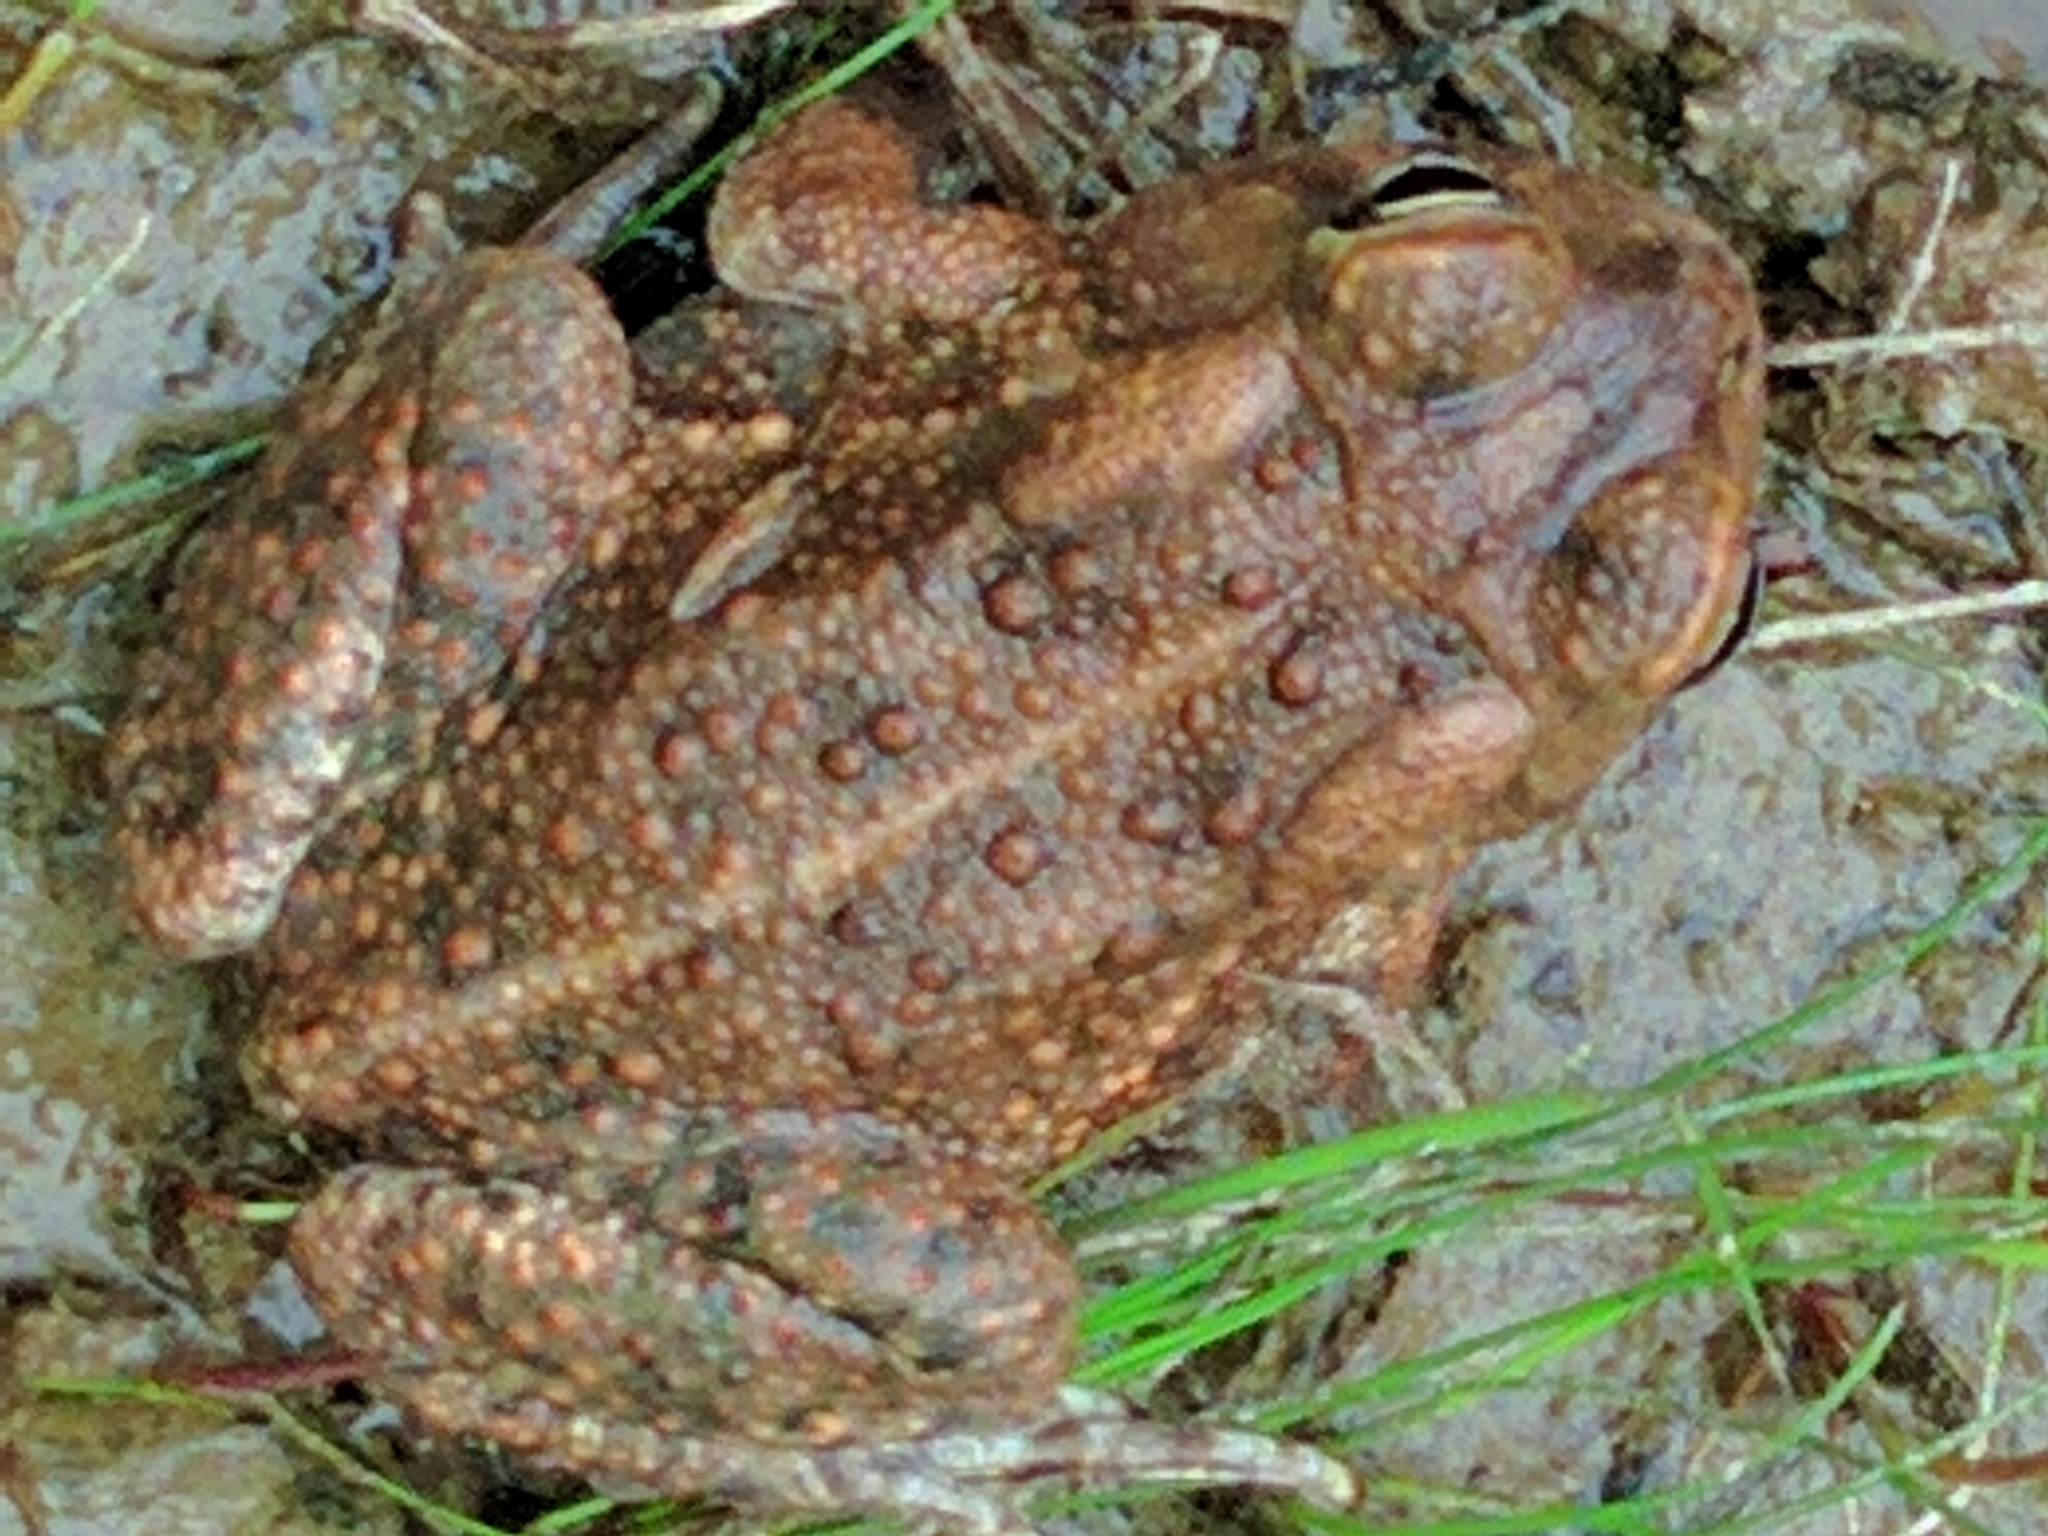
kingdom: Animalia
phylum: Chordata
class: Amphibia
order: Anura
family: Bufonidae
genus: Anaxyrus
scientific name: Anaxyrus americanus
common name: American toad
